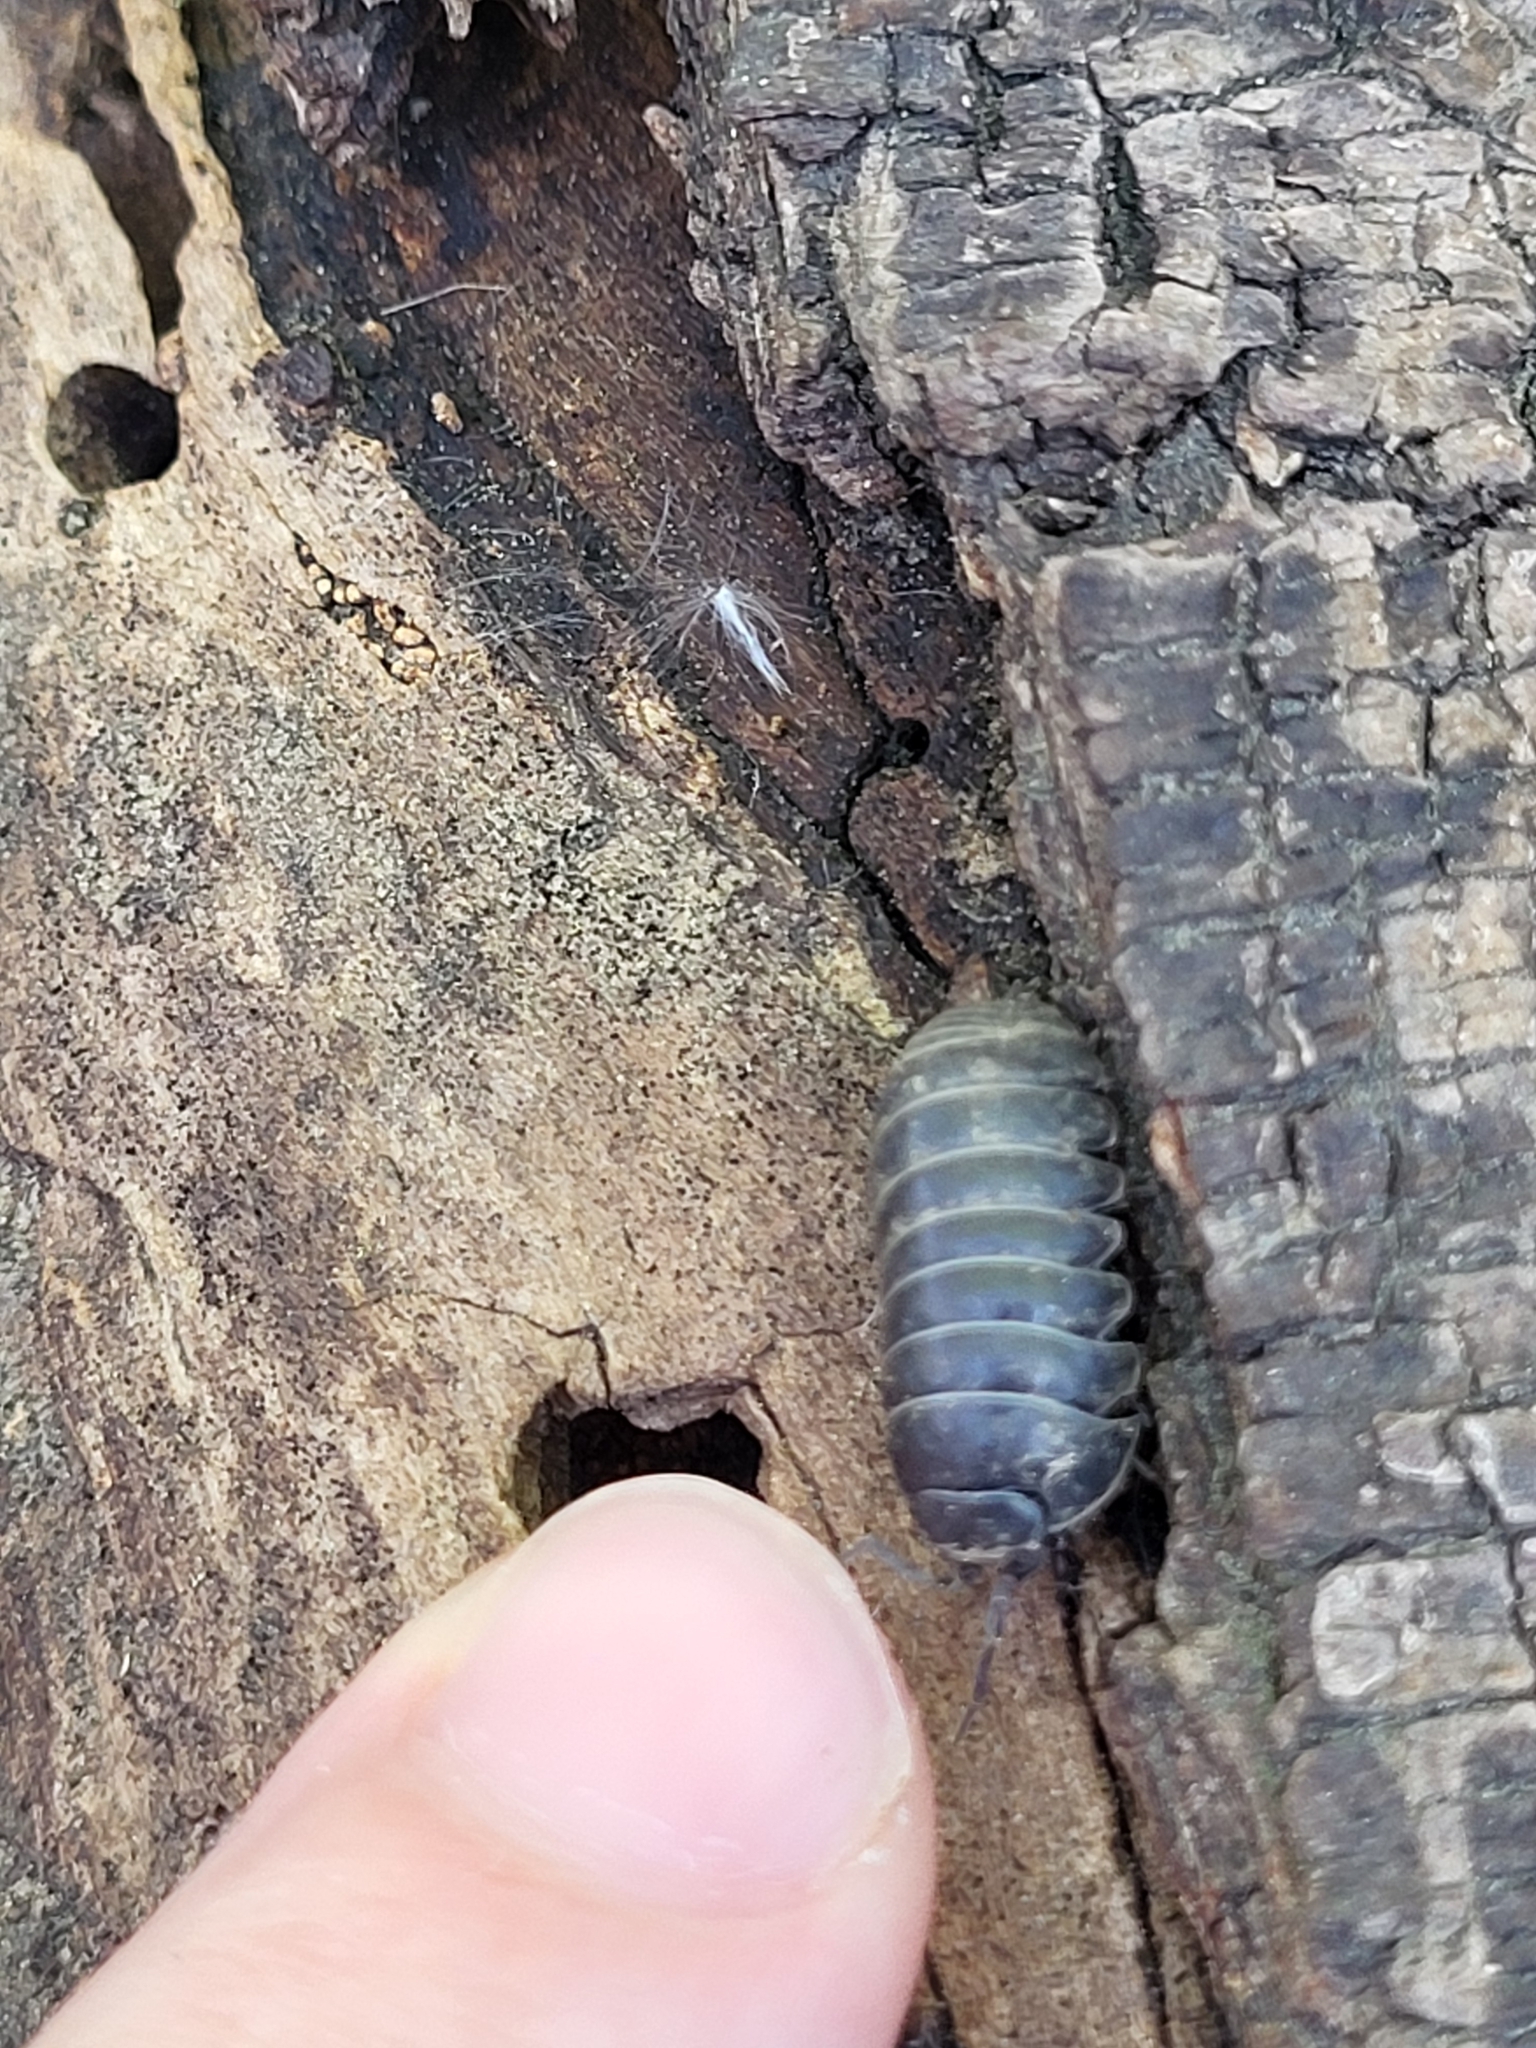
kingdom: Animalia
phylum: Arthropoda
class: Malacostraca
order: Isopoda
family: Armadillidiidae
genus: Armadillidium
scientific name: Armadillidium vulgare
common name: Common pill woodlouse
